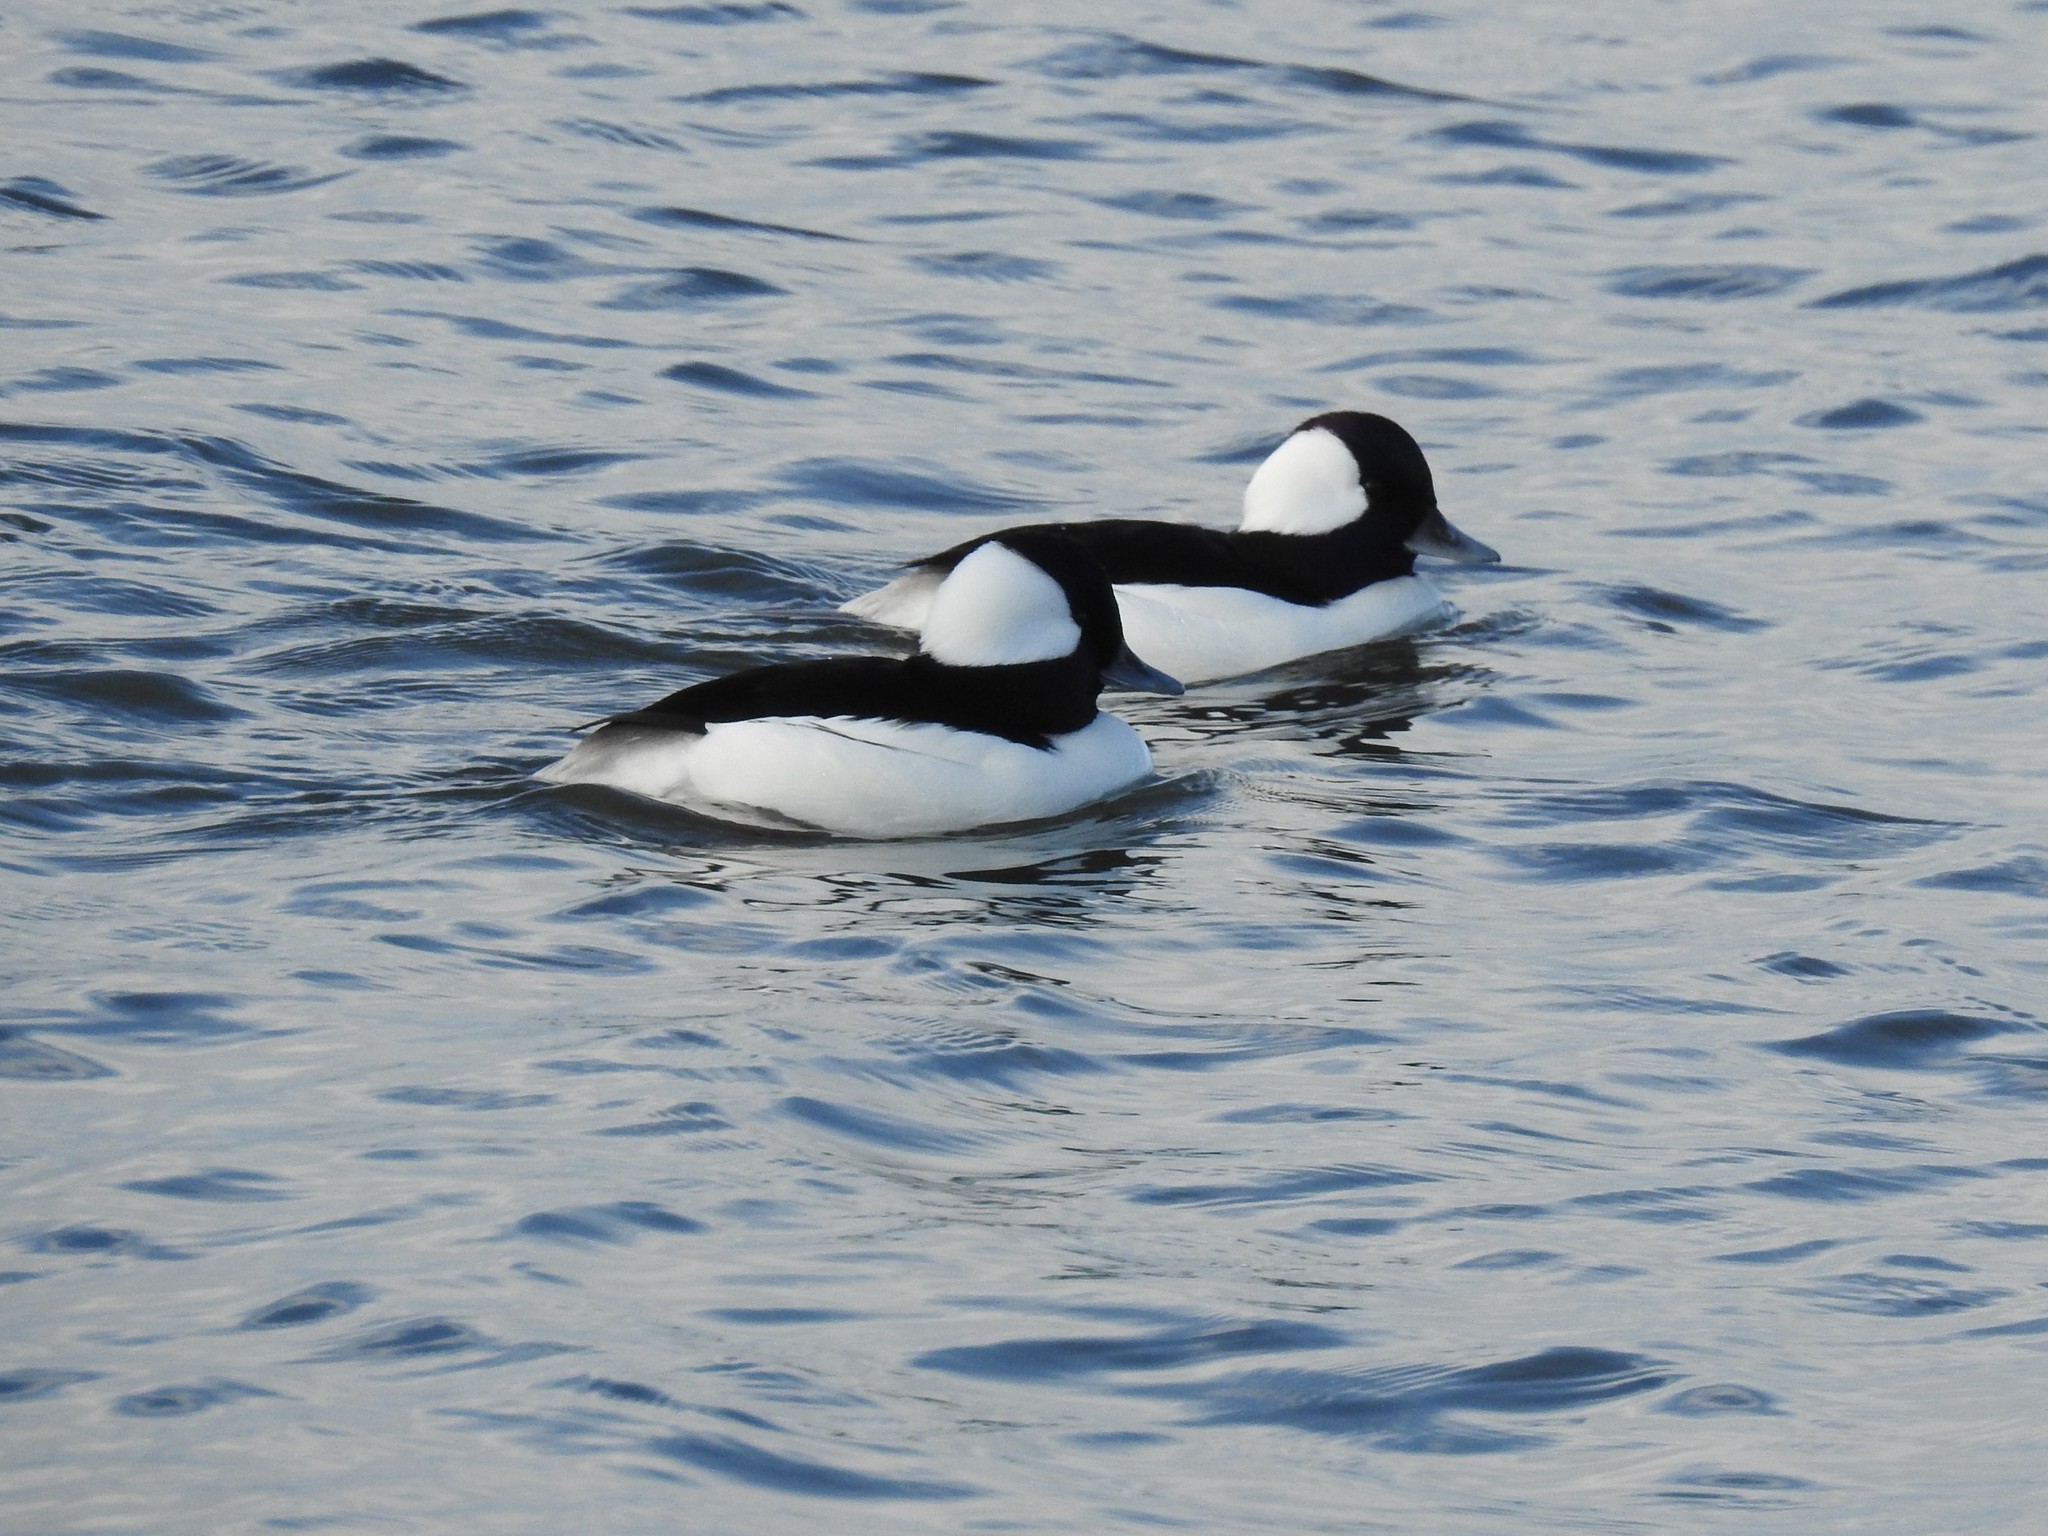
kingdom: Animalia
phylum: Chordata
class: Aves
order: Anseriformes
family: Anatidae
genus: Bucephala
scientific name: Bucephala albeola
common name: Bufflehead
